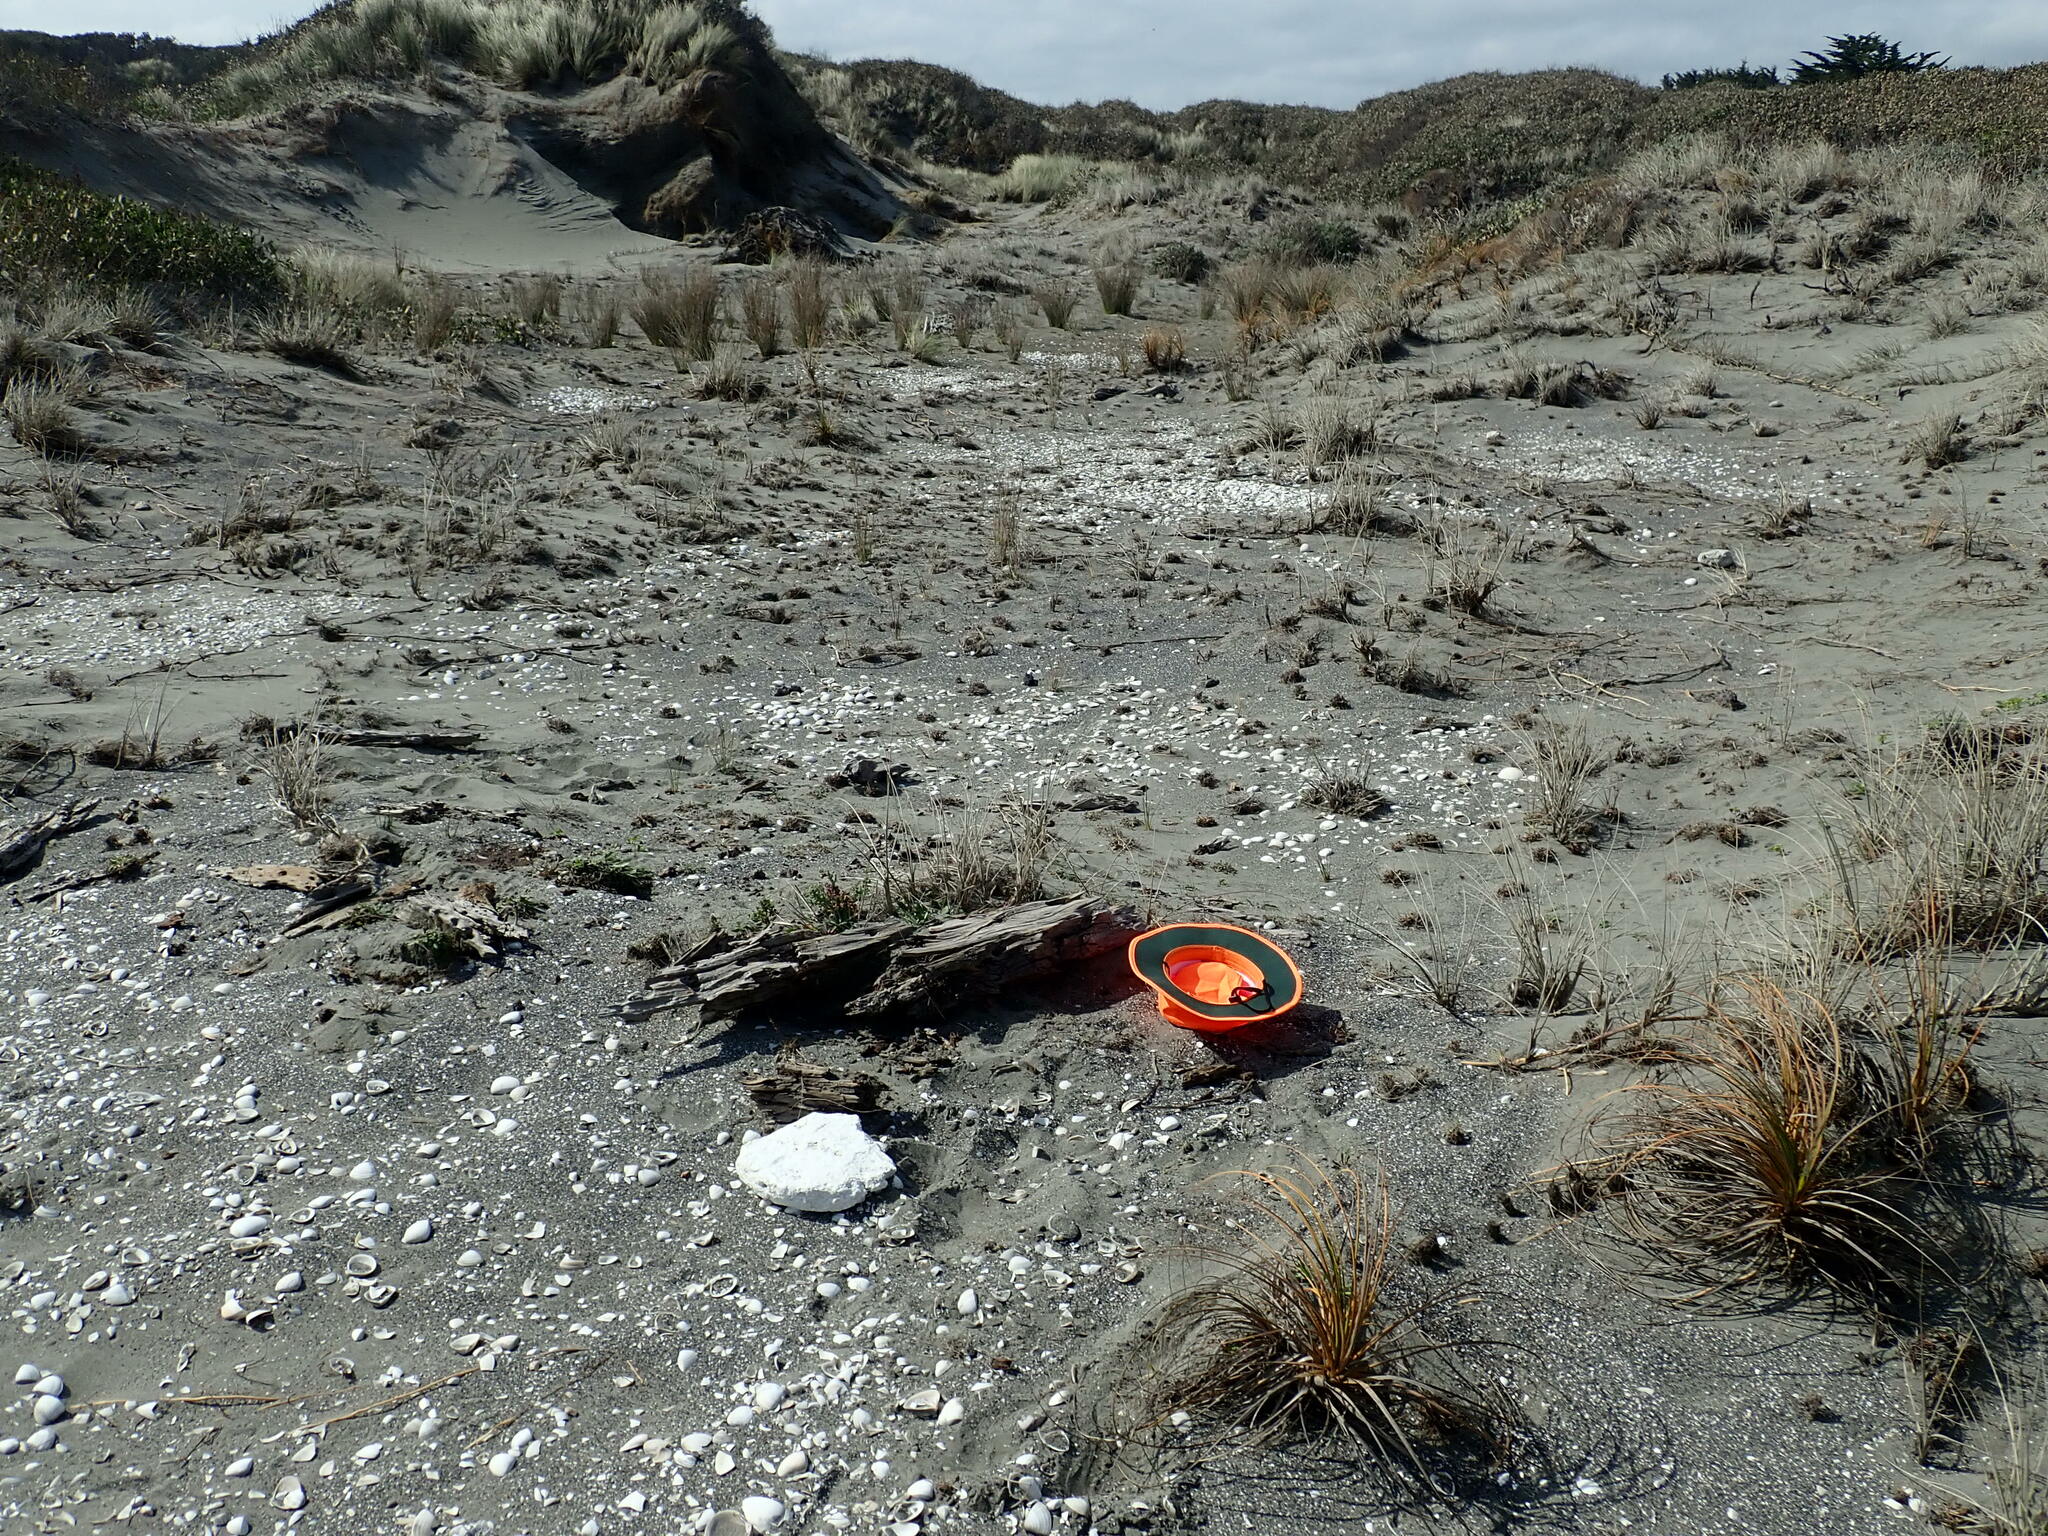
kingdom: Animalia
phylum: Arthropoda
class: Insecta
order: Dermaptera
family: Anisolabididae
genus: Anisolabis
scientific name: Anisolabis littorea
